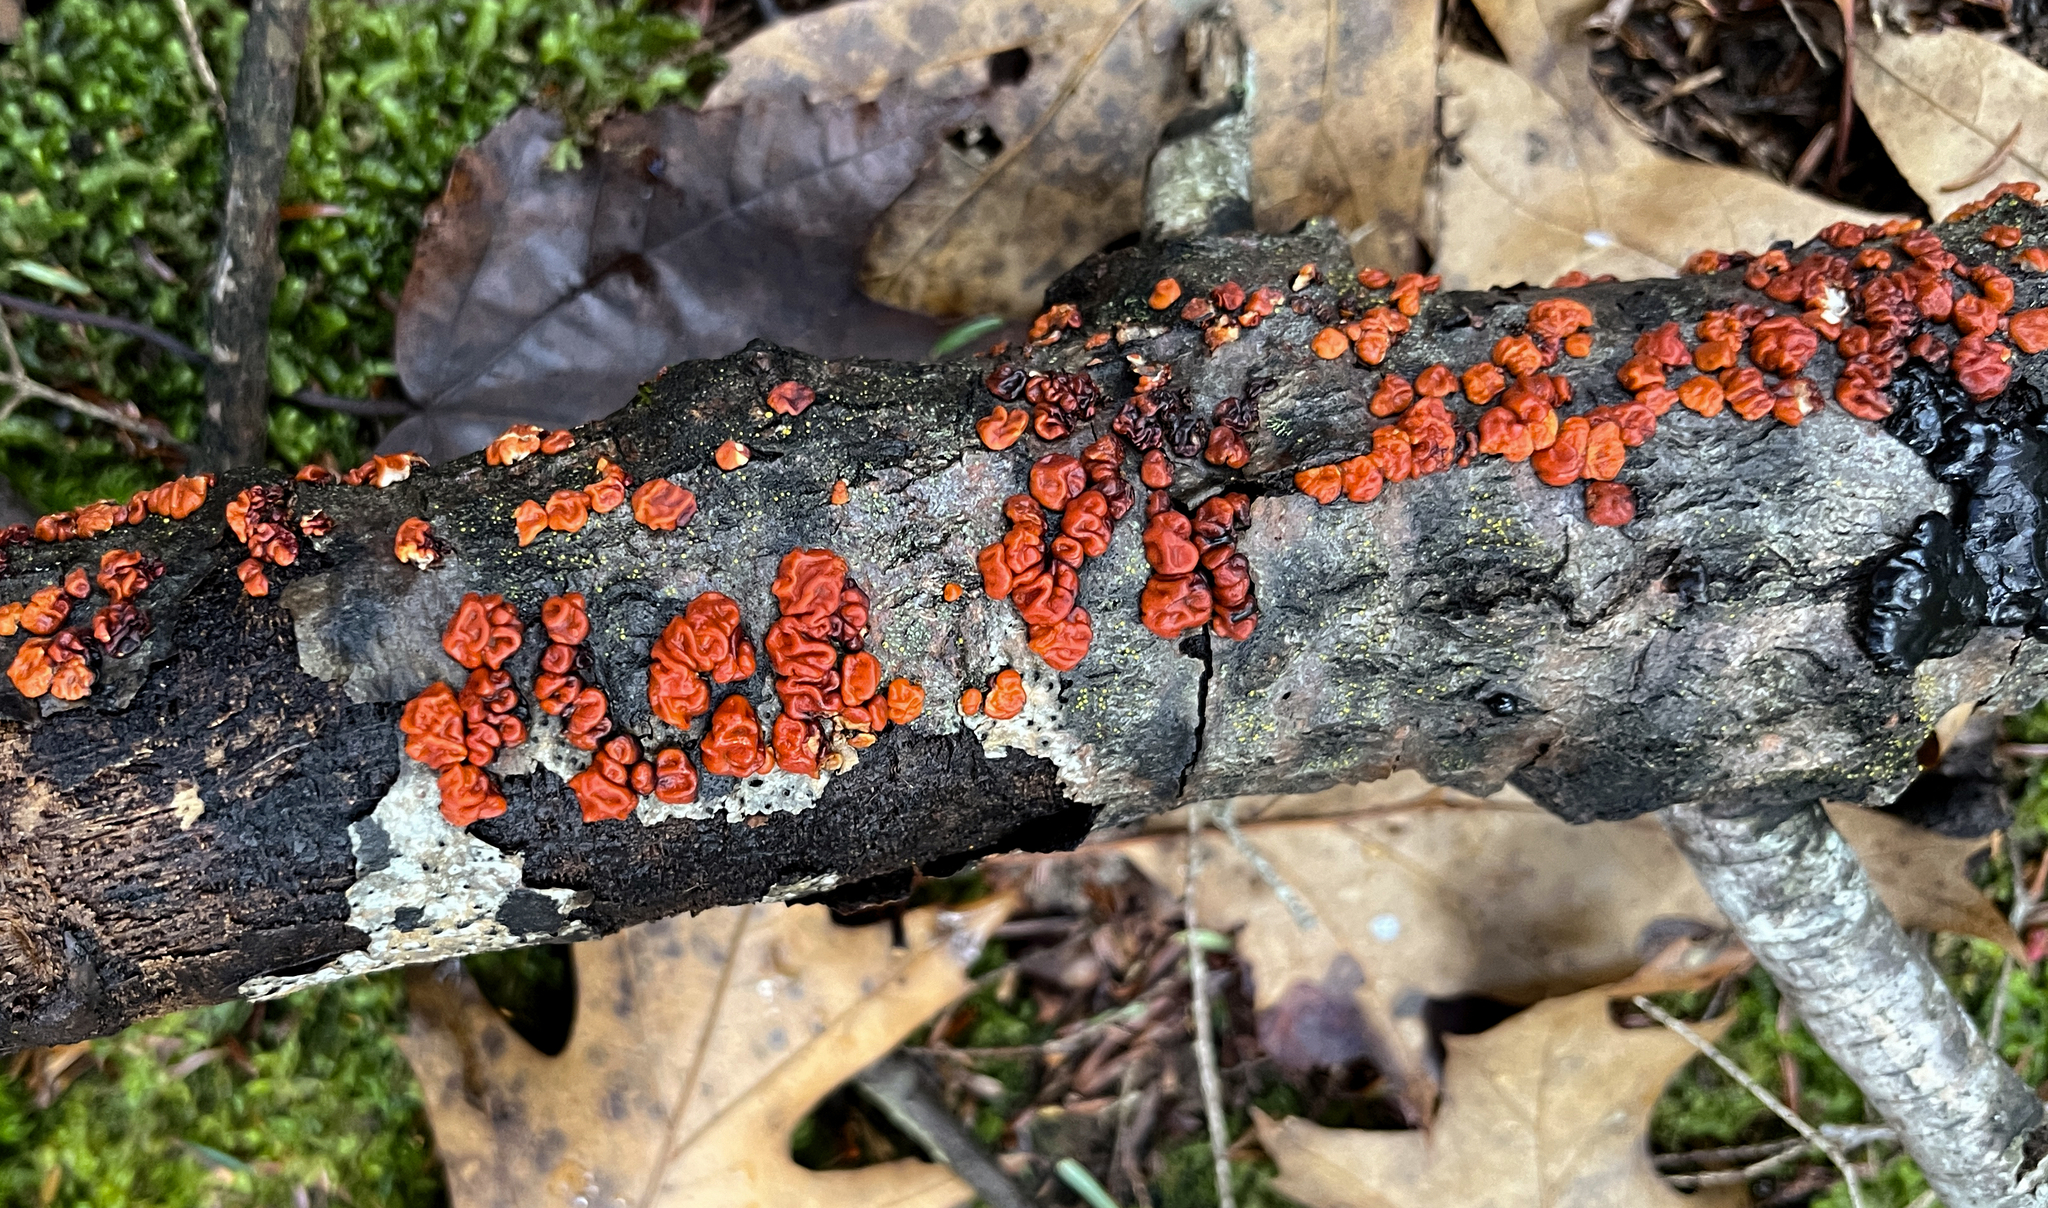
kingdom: Fungi
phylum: Basidiomycota
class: Agaricomycetes
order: Russulales
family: Peniophoraceae
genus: Peniophora
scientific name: Peniophora rufa
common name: Red tree brain fungus
